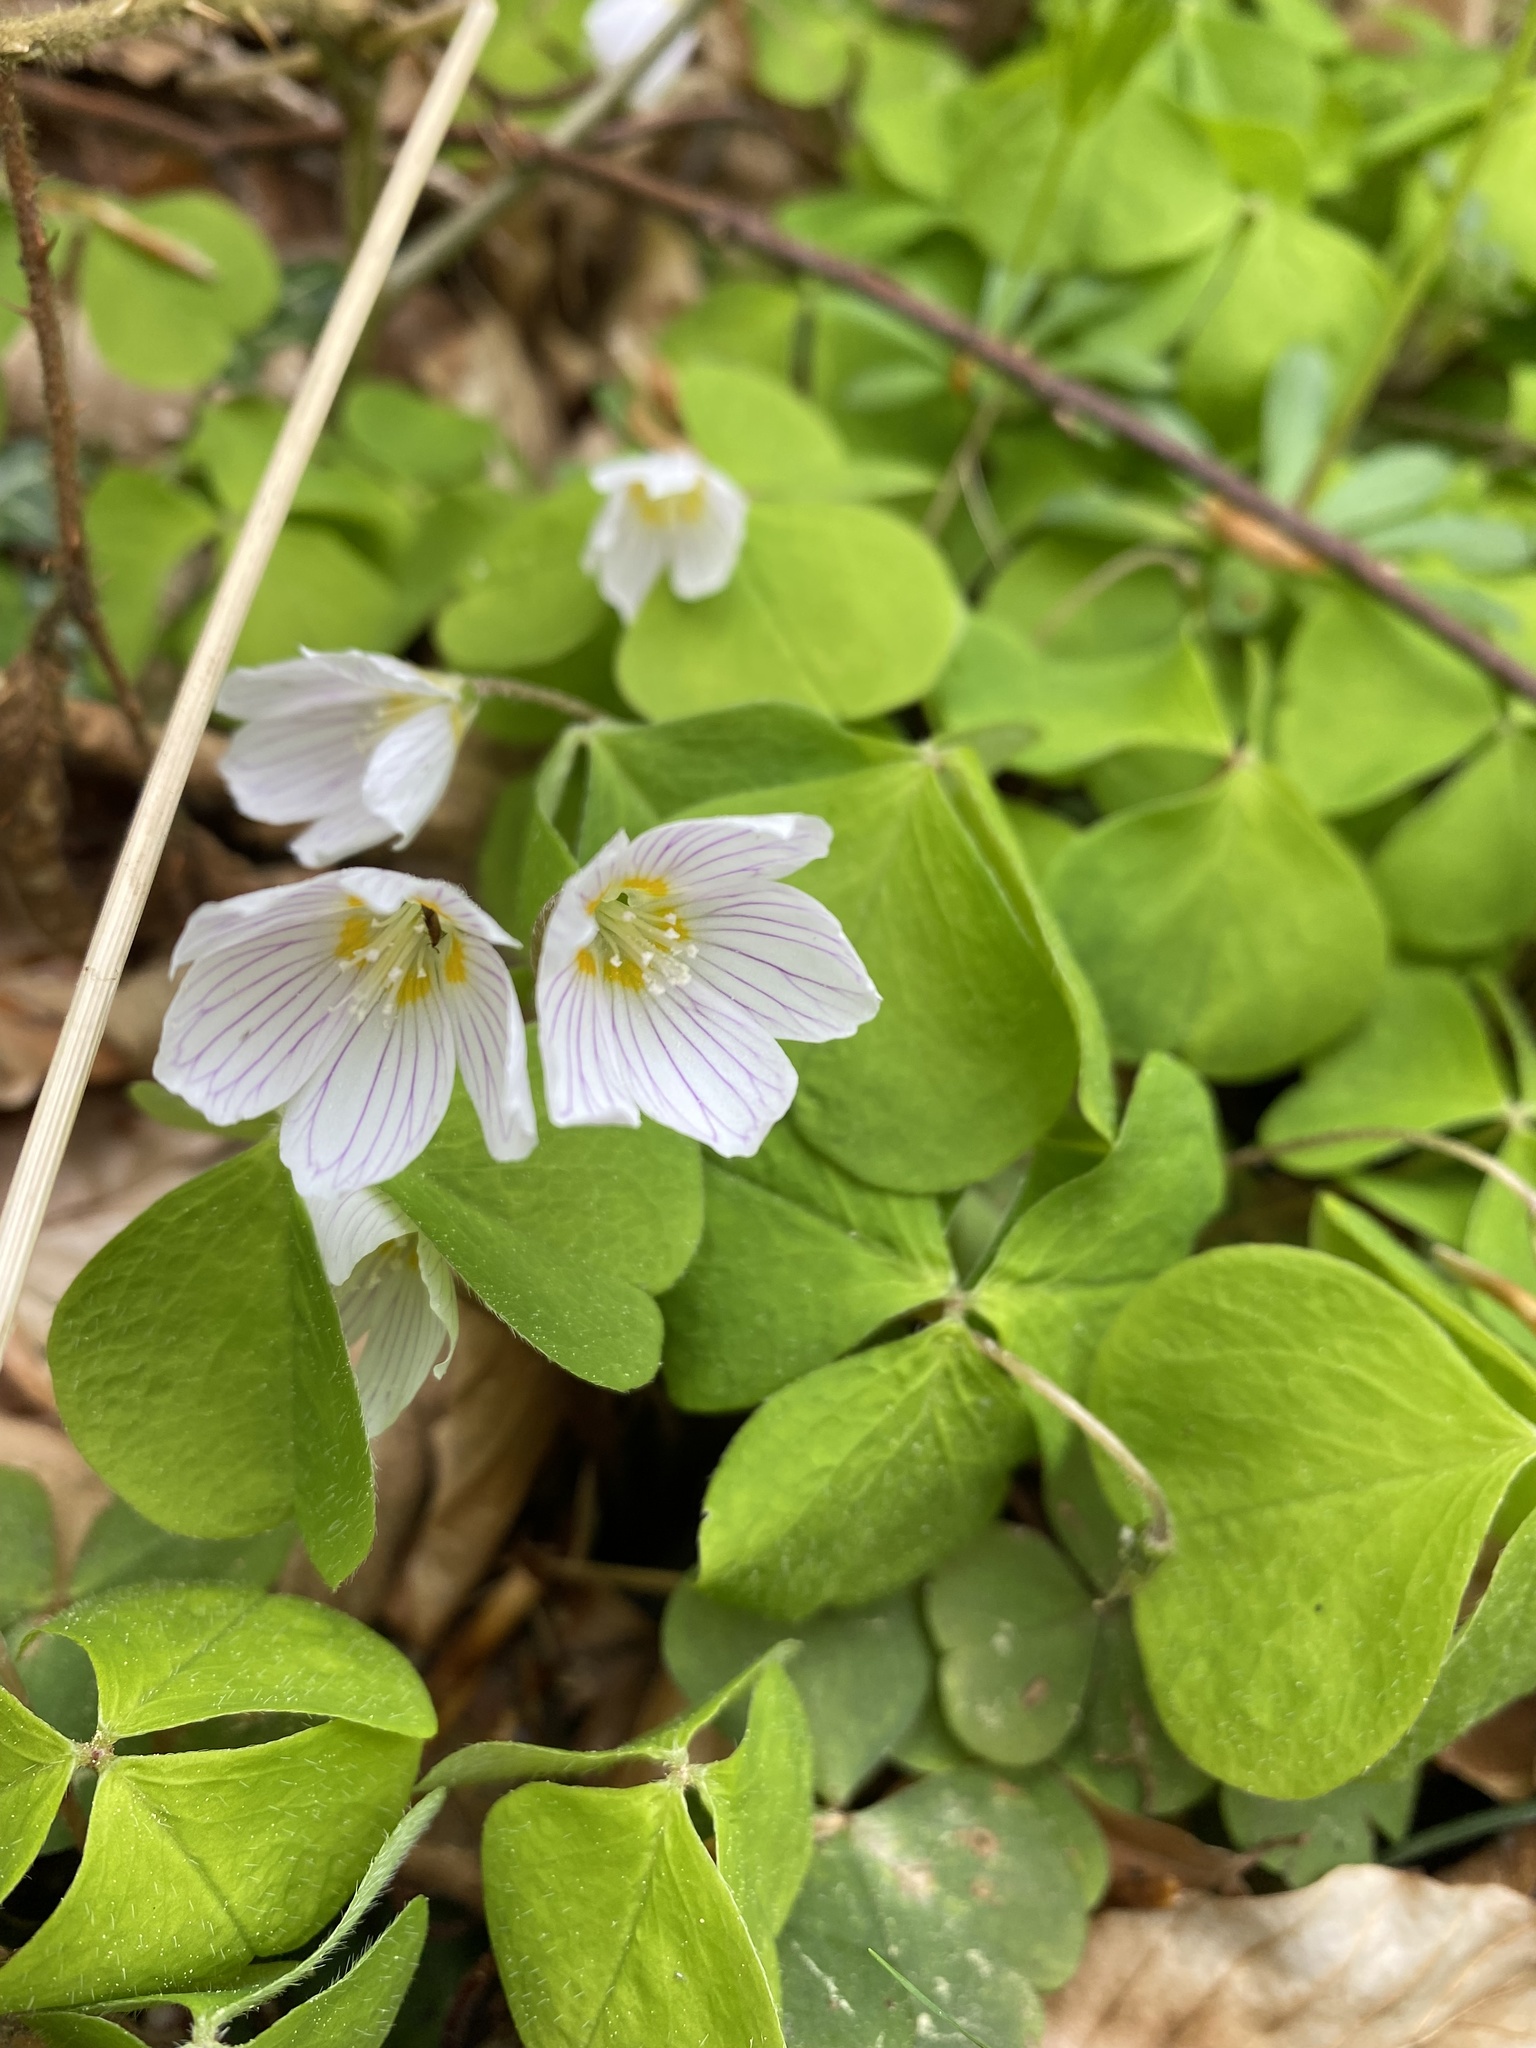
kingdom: Plantae
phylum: Tracheophyta
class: Magnoliopsida
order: Oxalidales
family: Oxalidaceae
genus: Oxalis
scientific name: Oxalis acetosella
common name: Wood-sorrel
